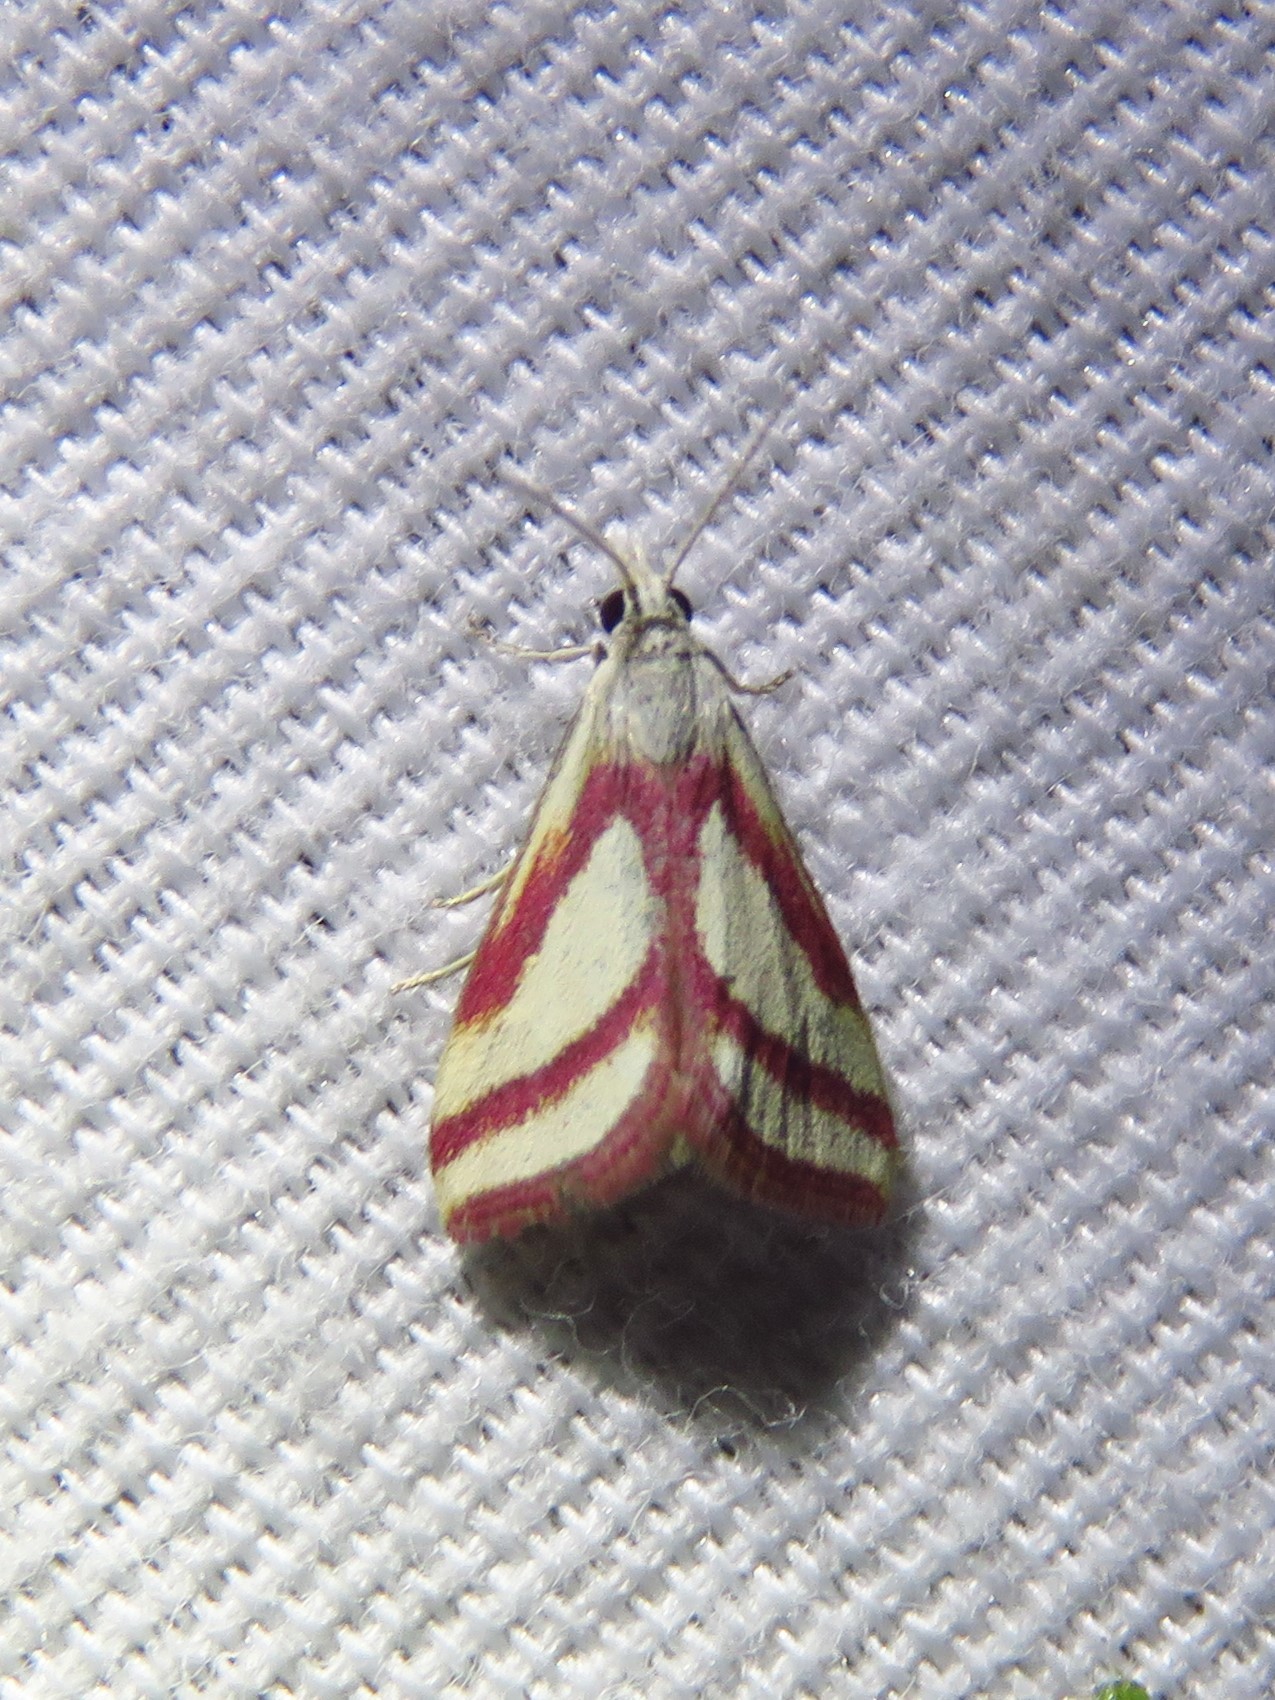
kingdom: Animalia
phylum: Arthropoda
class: Insecta
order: Lepidoptera
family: Crambidae
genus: Microtheoris
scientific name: Microtheoris vibicalis
